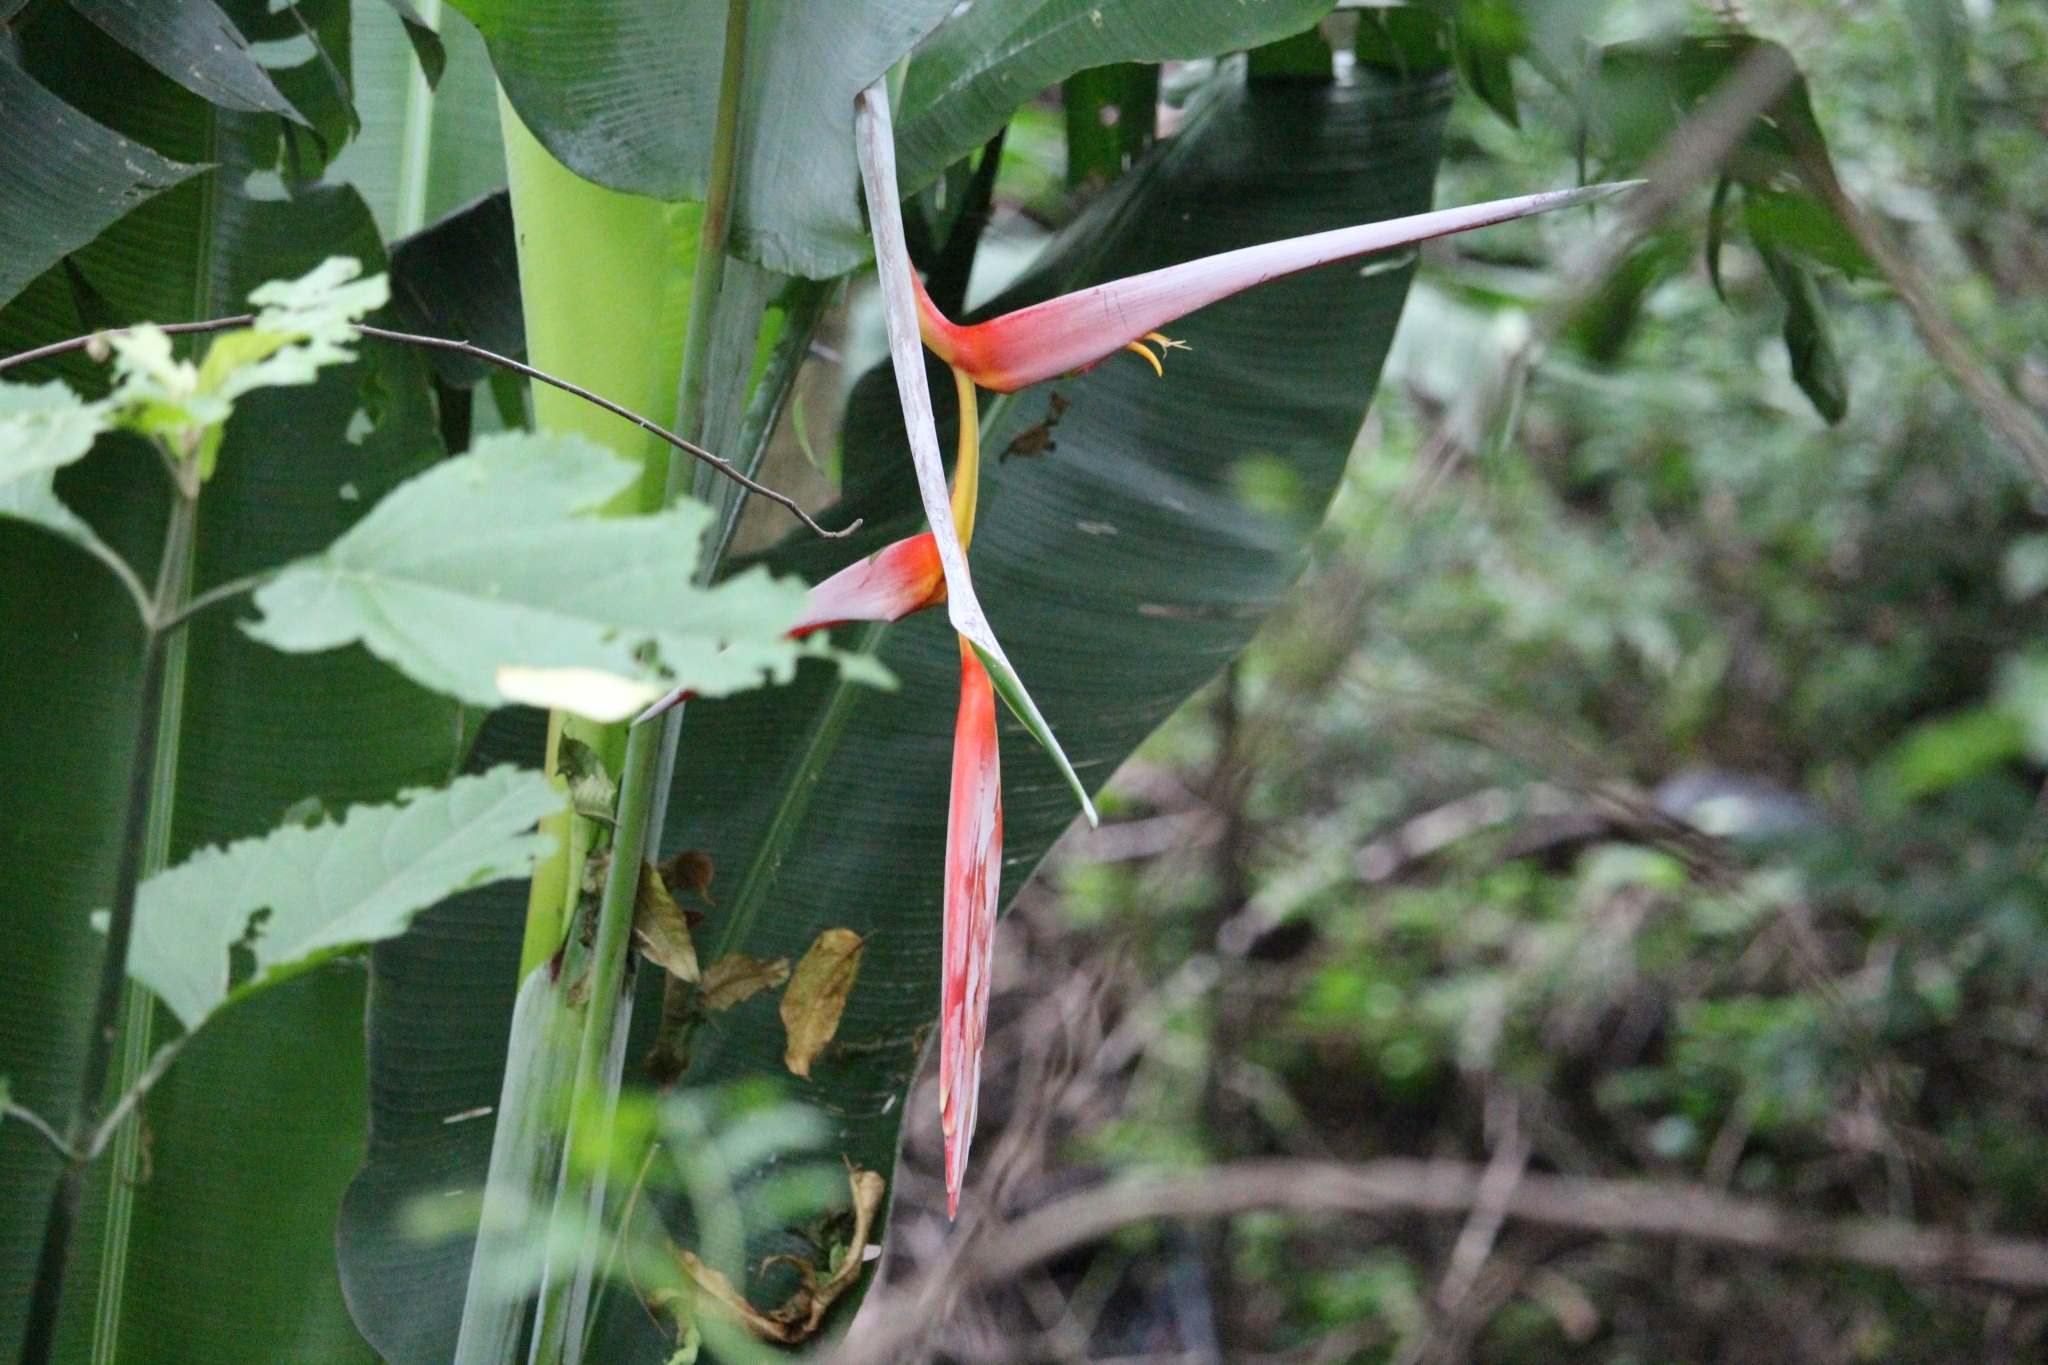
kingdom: Plantae
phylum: Tracheophyta
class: Liliopsida
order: Zingiberales
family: Heliconiaceae
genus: Heliconia
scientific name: Heliconia collinsiana
